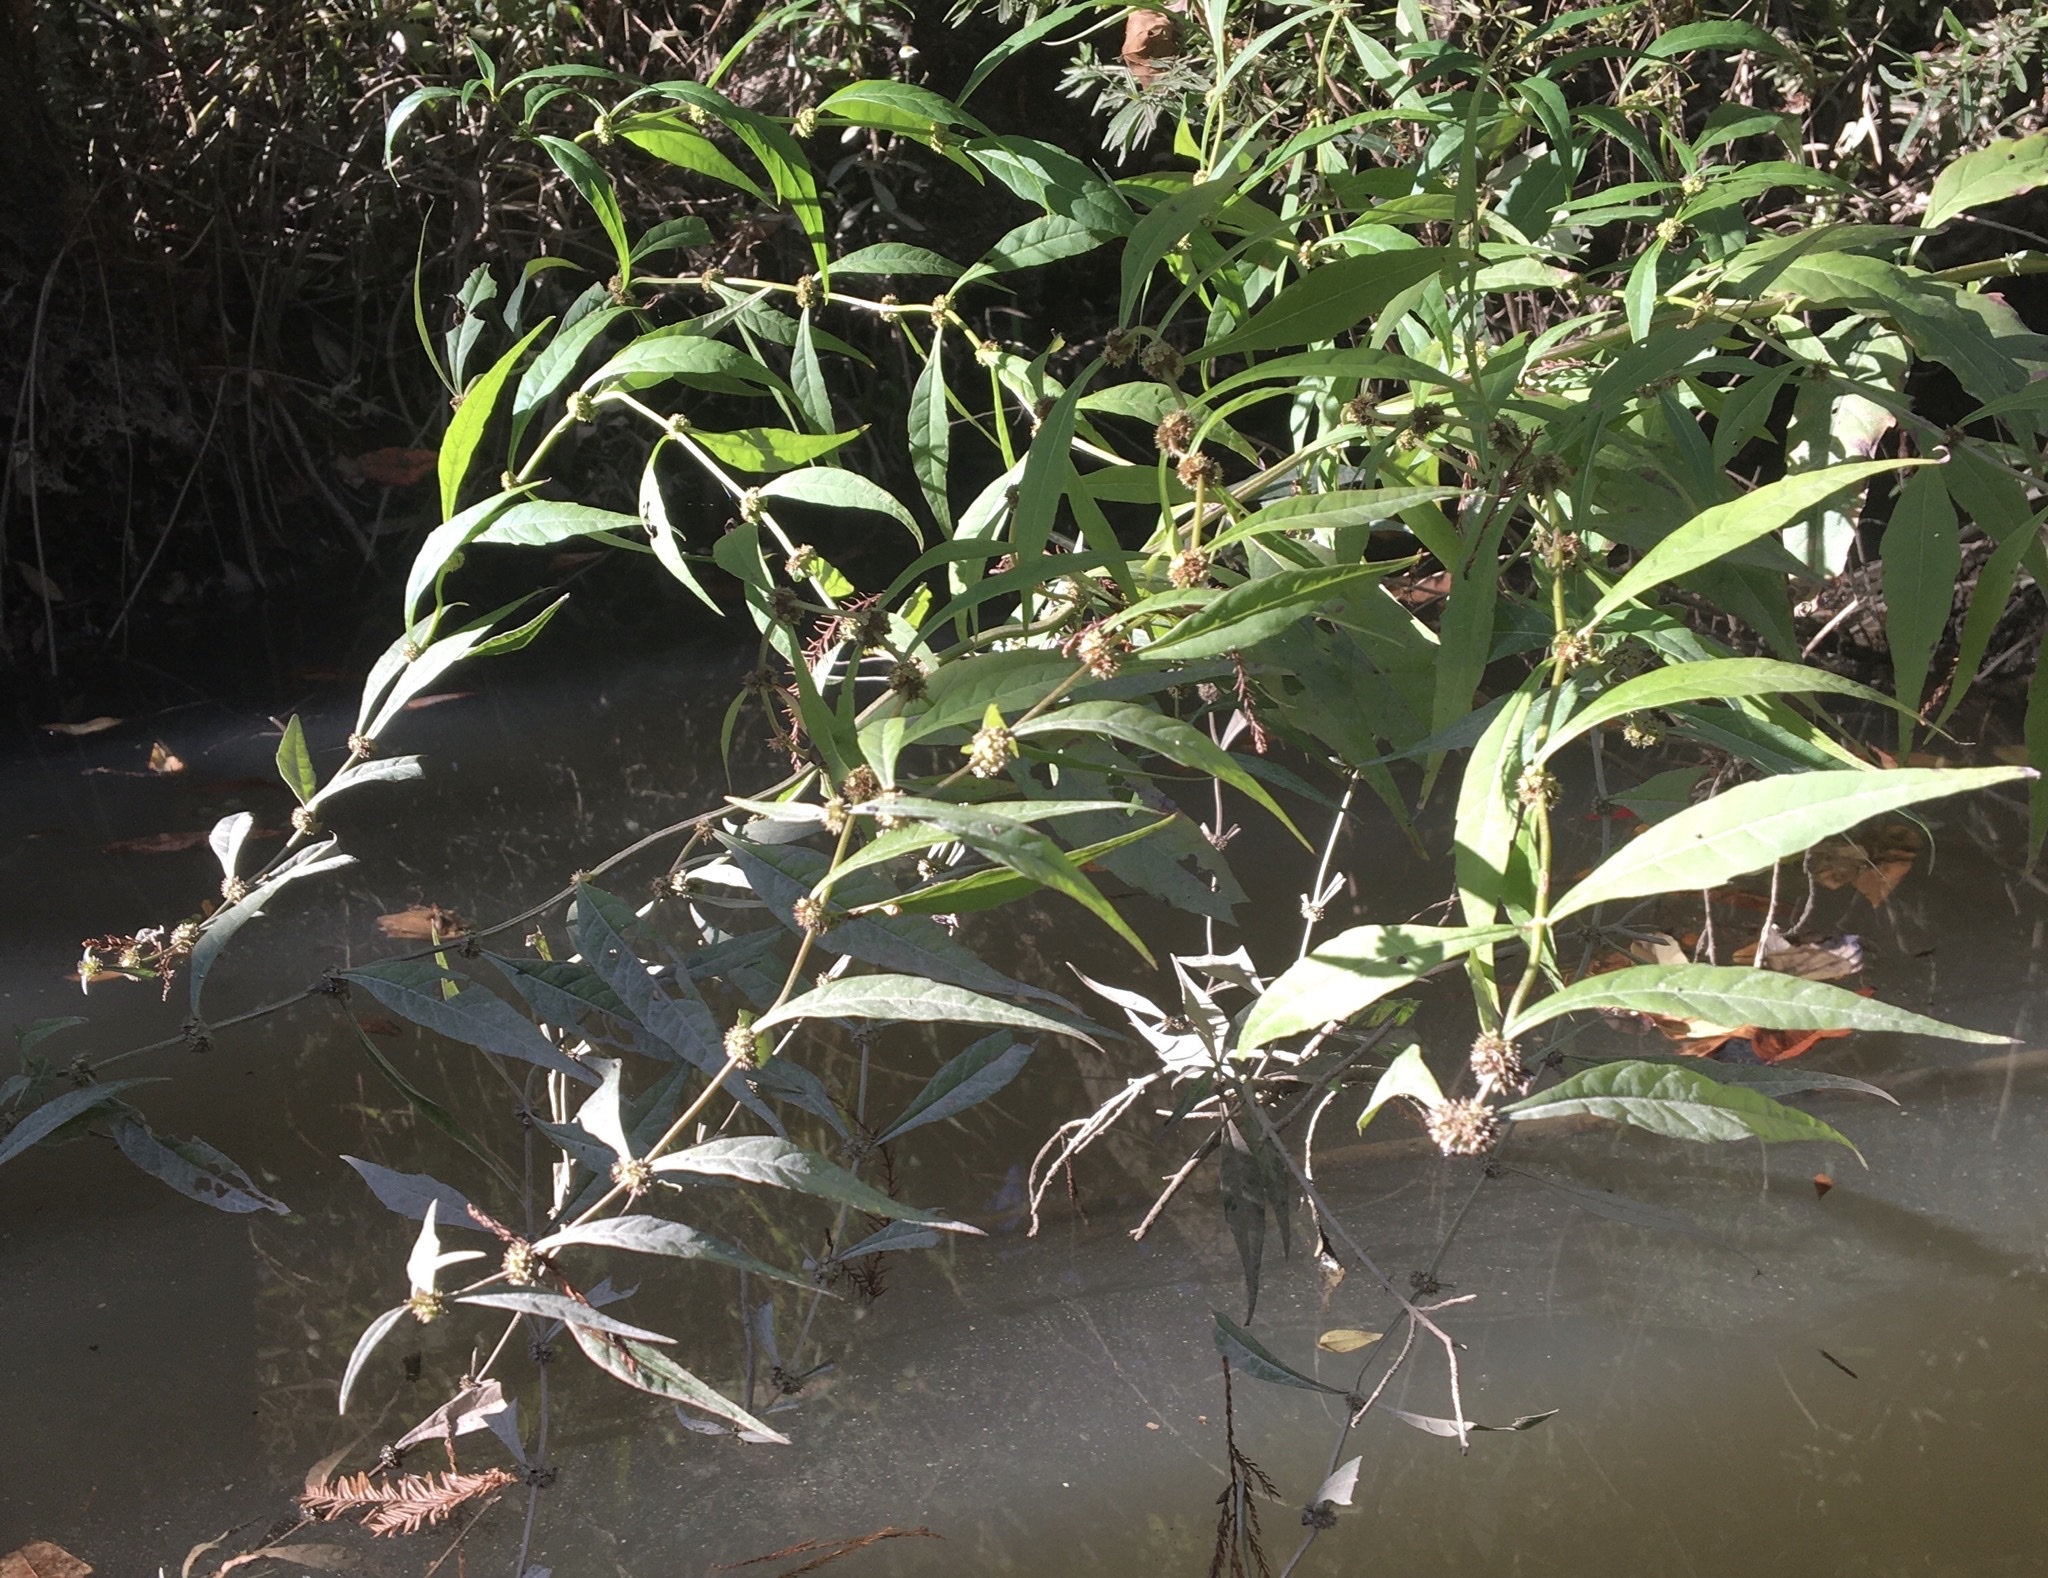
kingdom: Plantae
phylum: Tracheophyta
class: Magnoliopsida
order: Lamiales
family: Lamiaceae
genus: Lycopus
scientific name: Lycopus angustifolius
